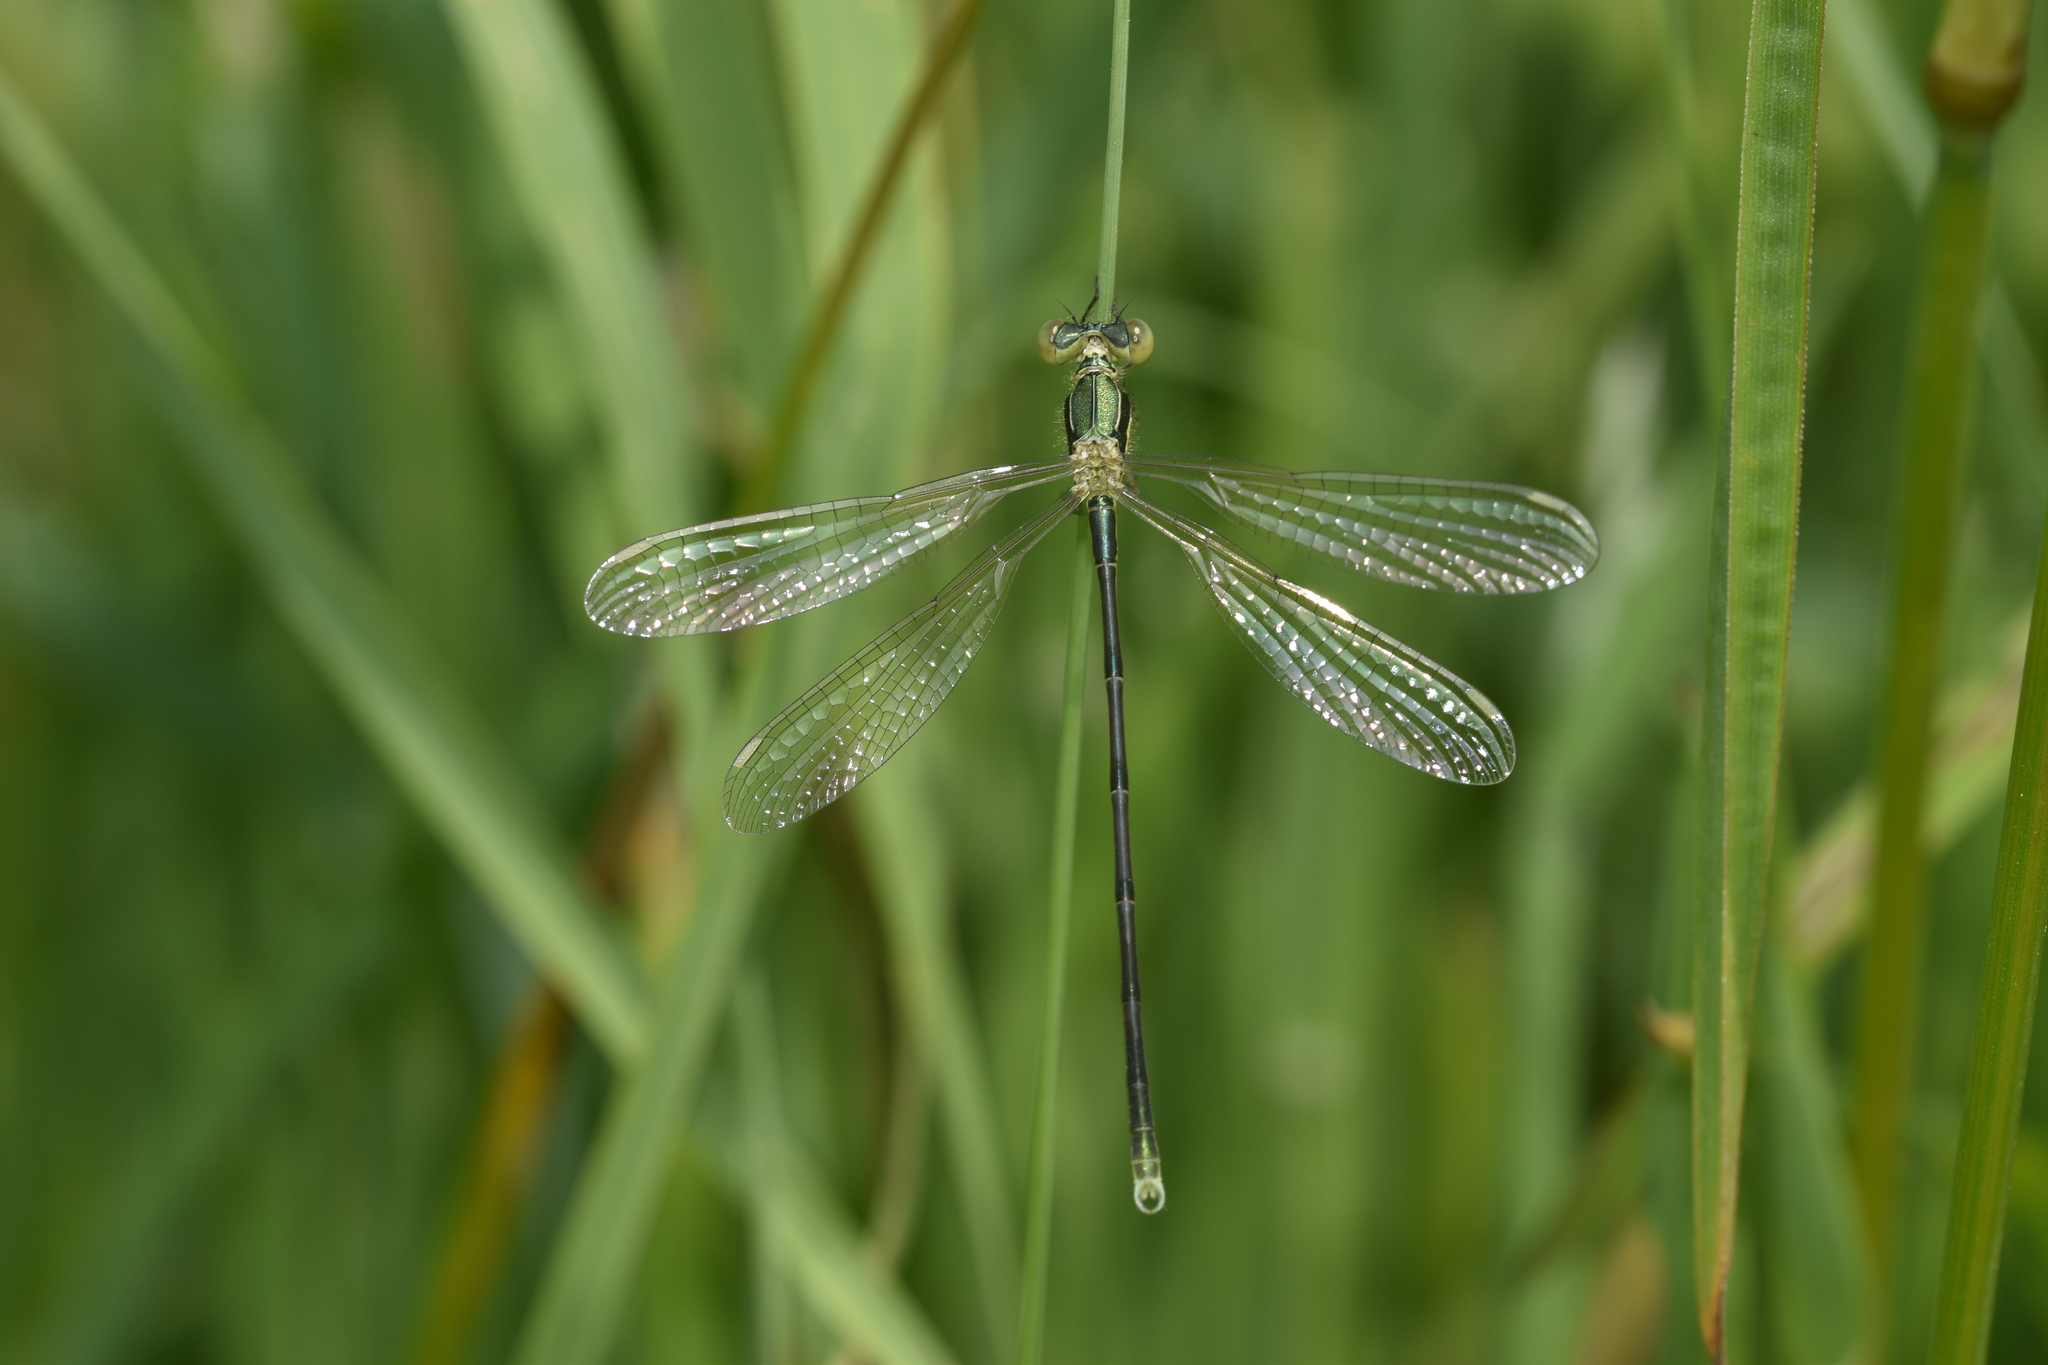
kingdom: Animalia
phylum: Arthropoda
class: Insecta
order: Odonata
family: Lestidae
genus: Lestes
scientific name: Lestes virens
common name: Small emerald spreadwing
